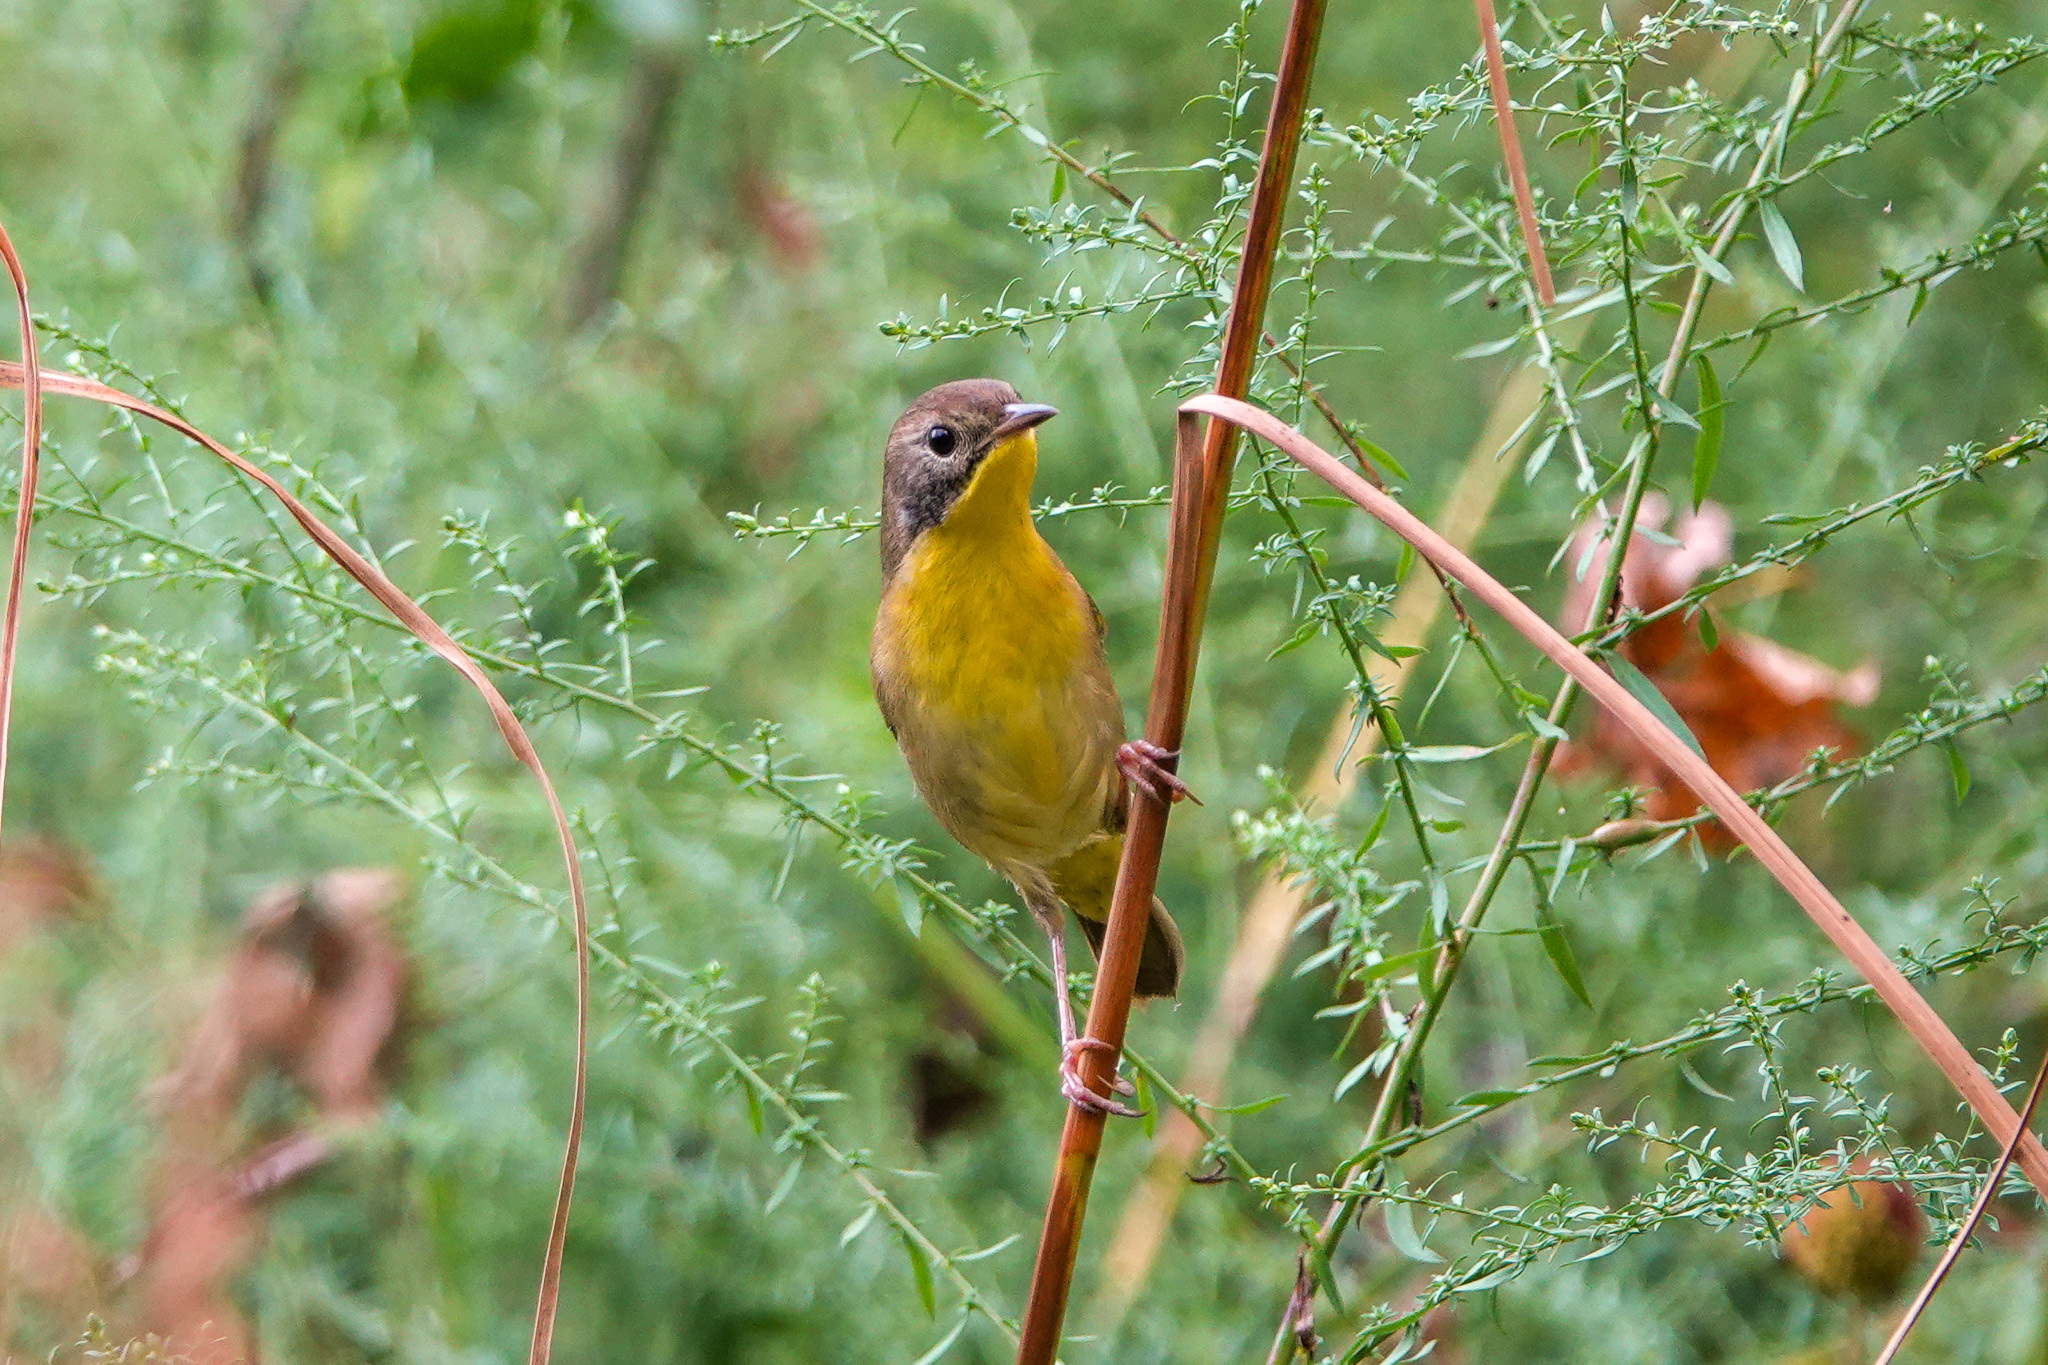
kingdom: Animalia
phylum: Chordata
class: Aves
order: Passeriformes
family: Parulidae
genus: Geothlypis
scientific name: Geothlypis trichas
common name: Common yellowthroat
